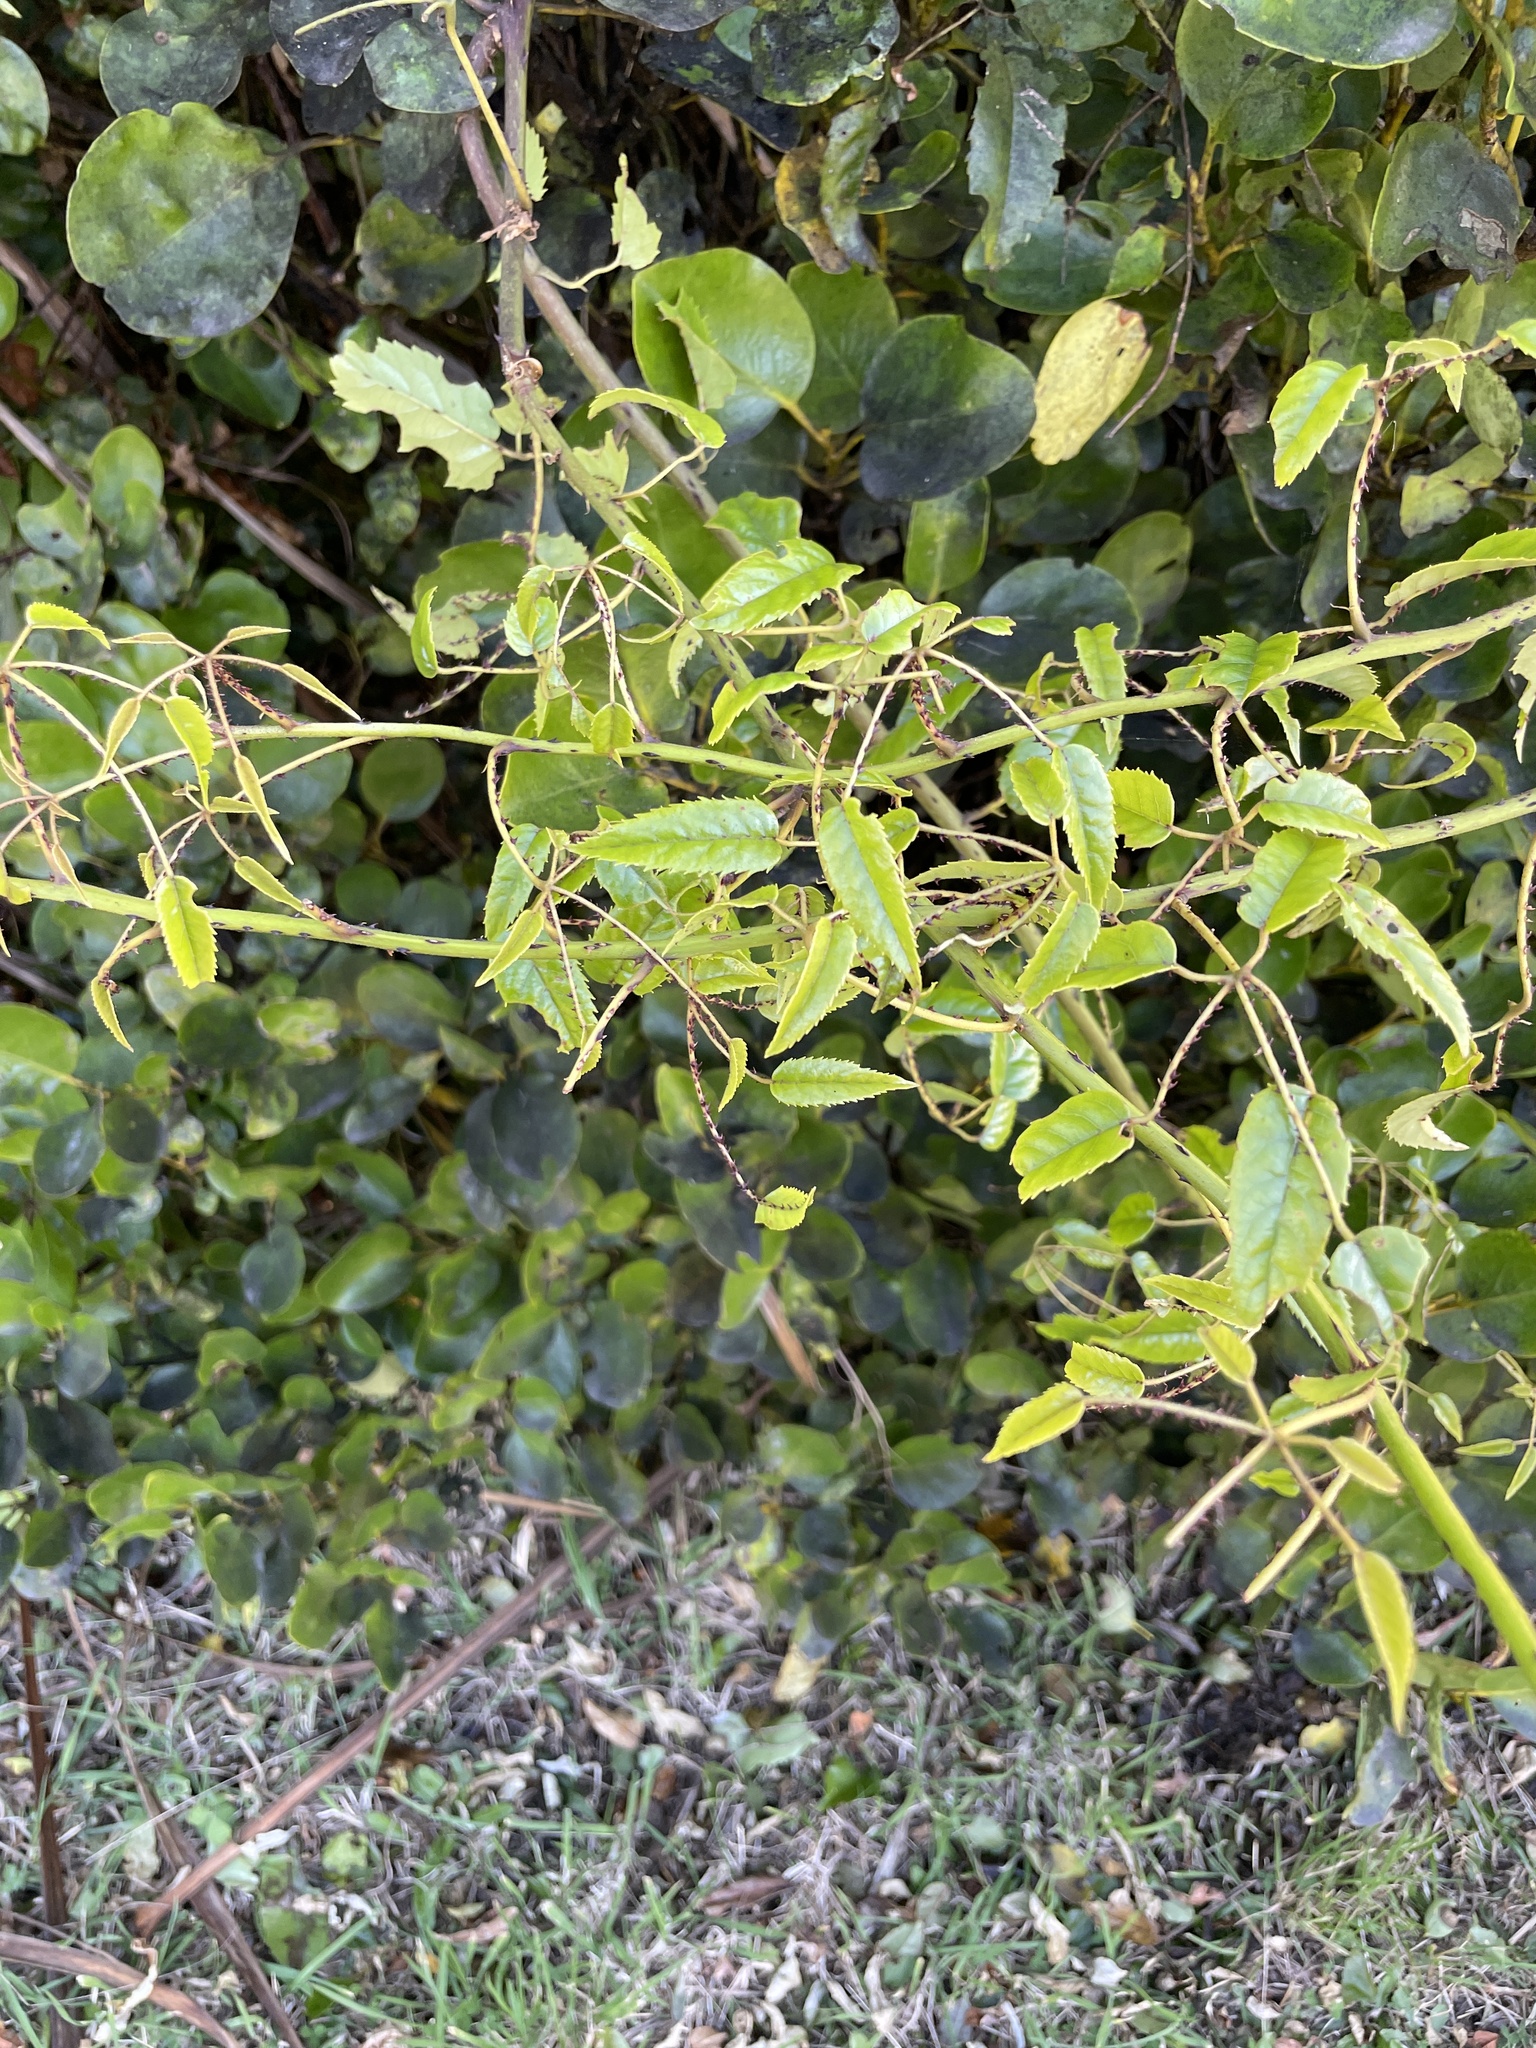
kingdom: Plantae
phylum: Tracheophyta
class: Magnoliopsida
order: Rosales
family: Rosaceae
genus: Rubus
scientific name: Rubus cissoides
